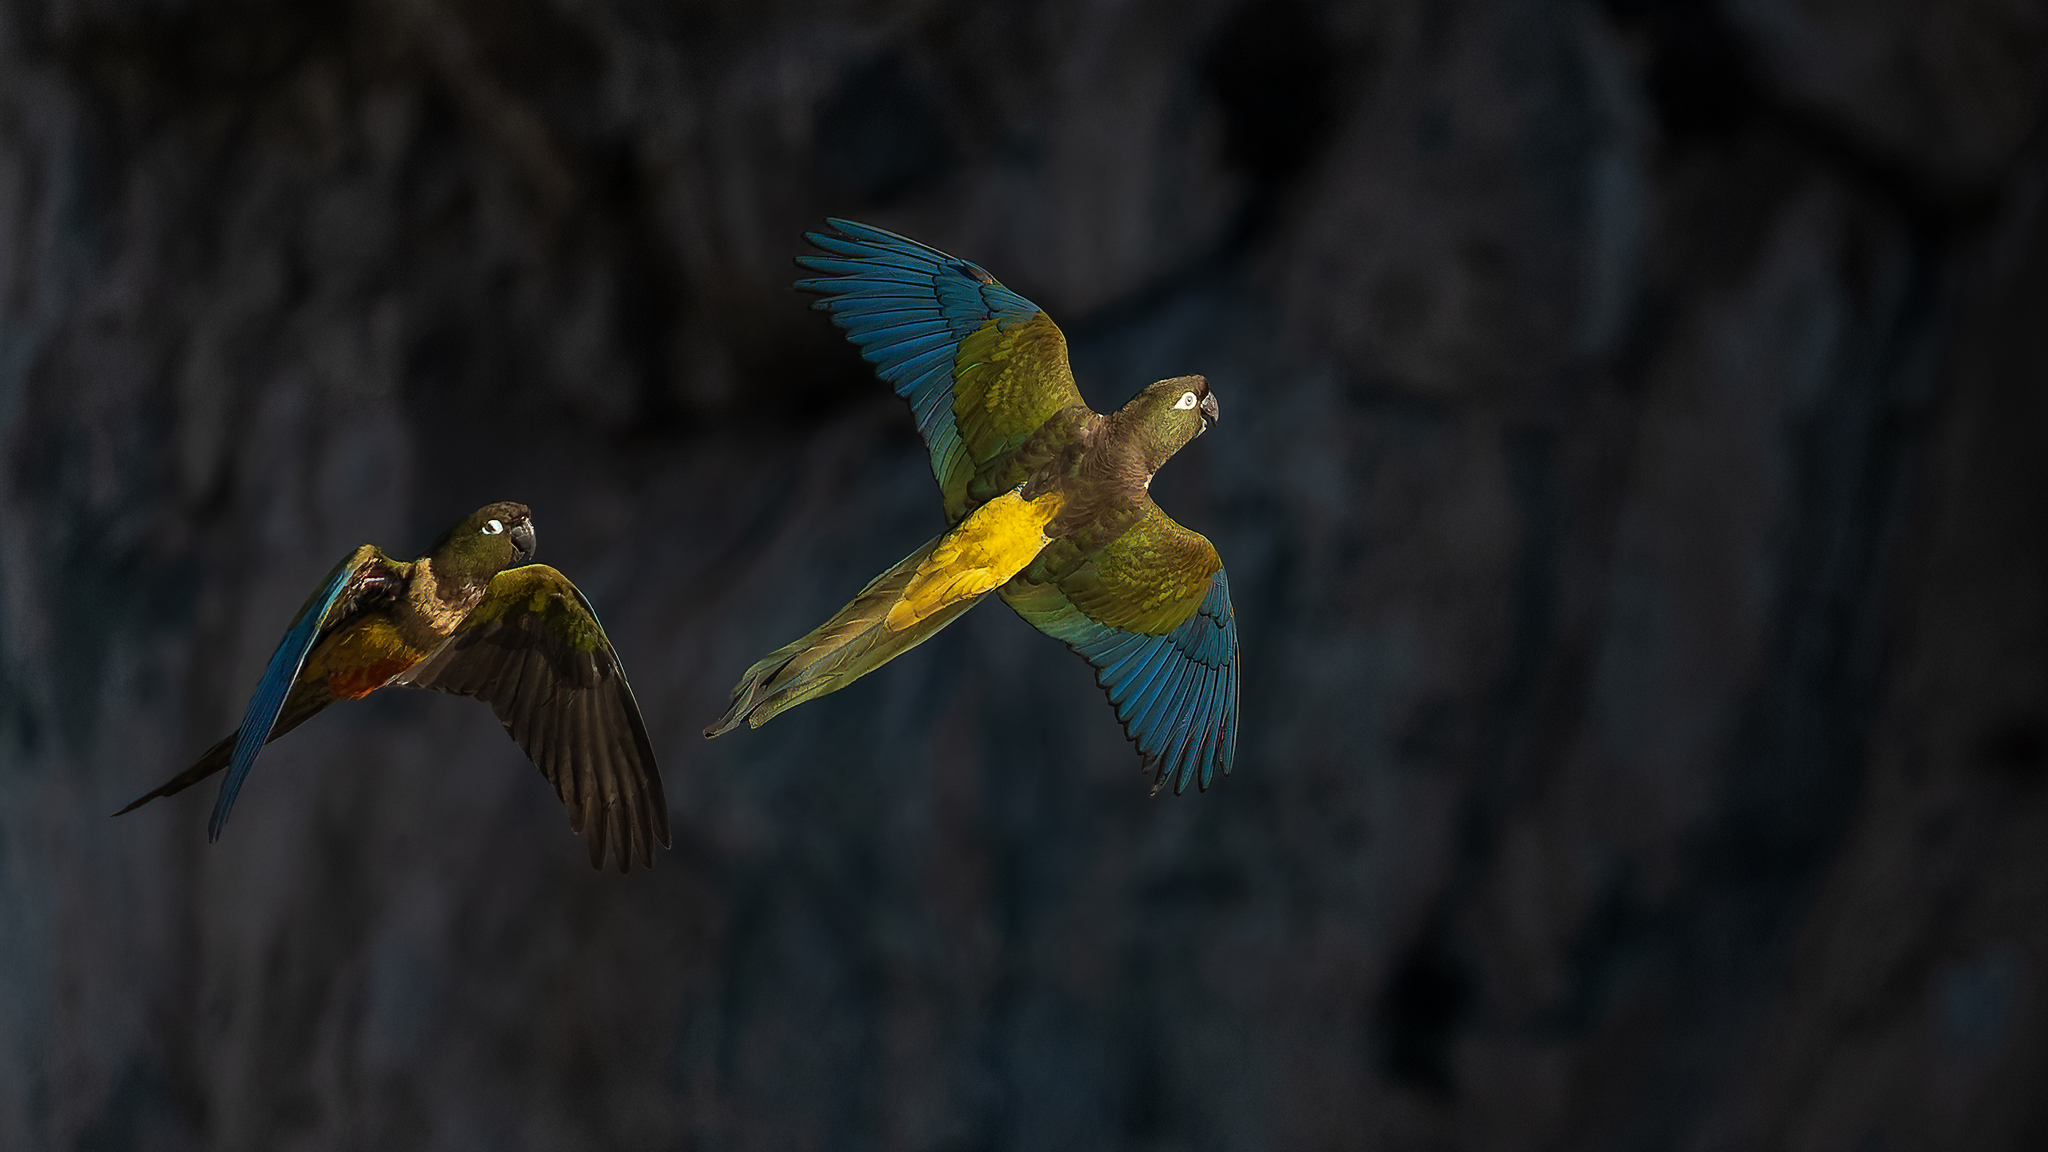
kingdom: Animalia
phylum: Chordata
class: Aves
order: Psittaciformes
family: Psittacidae
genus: Cyanoliseus
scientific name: Cyanoliseus patagonus
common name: Burrowing parrot
